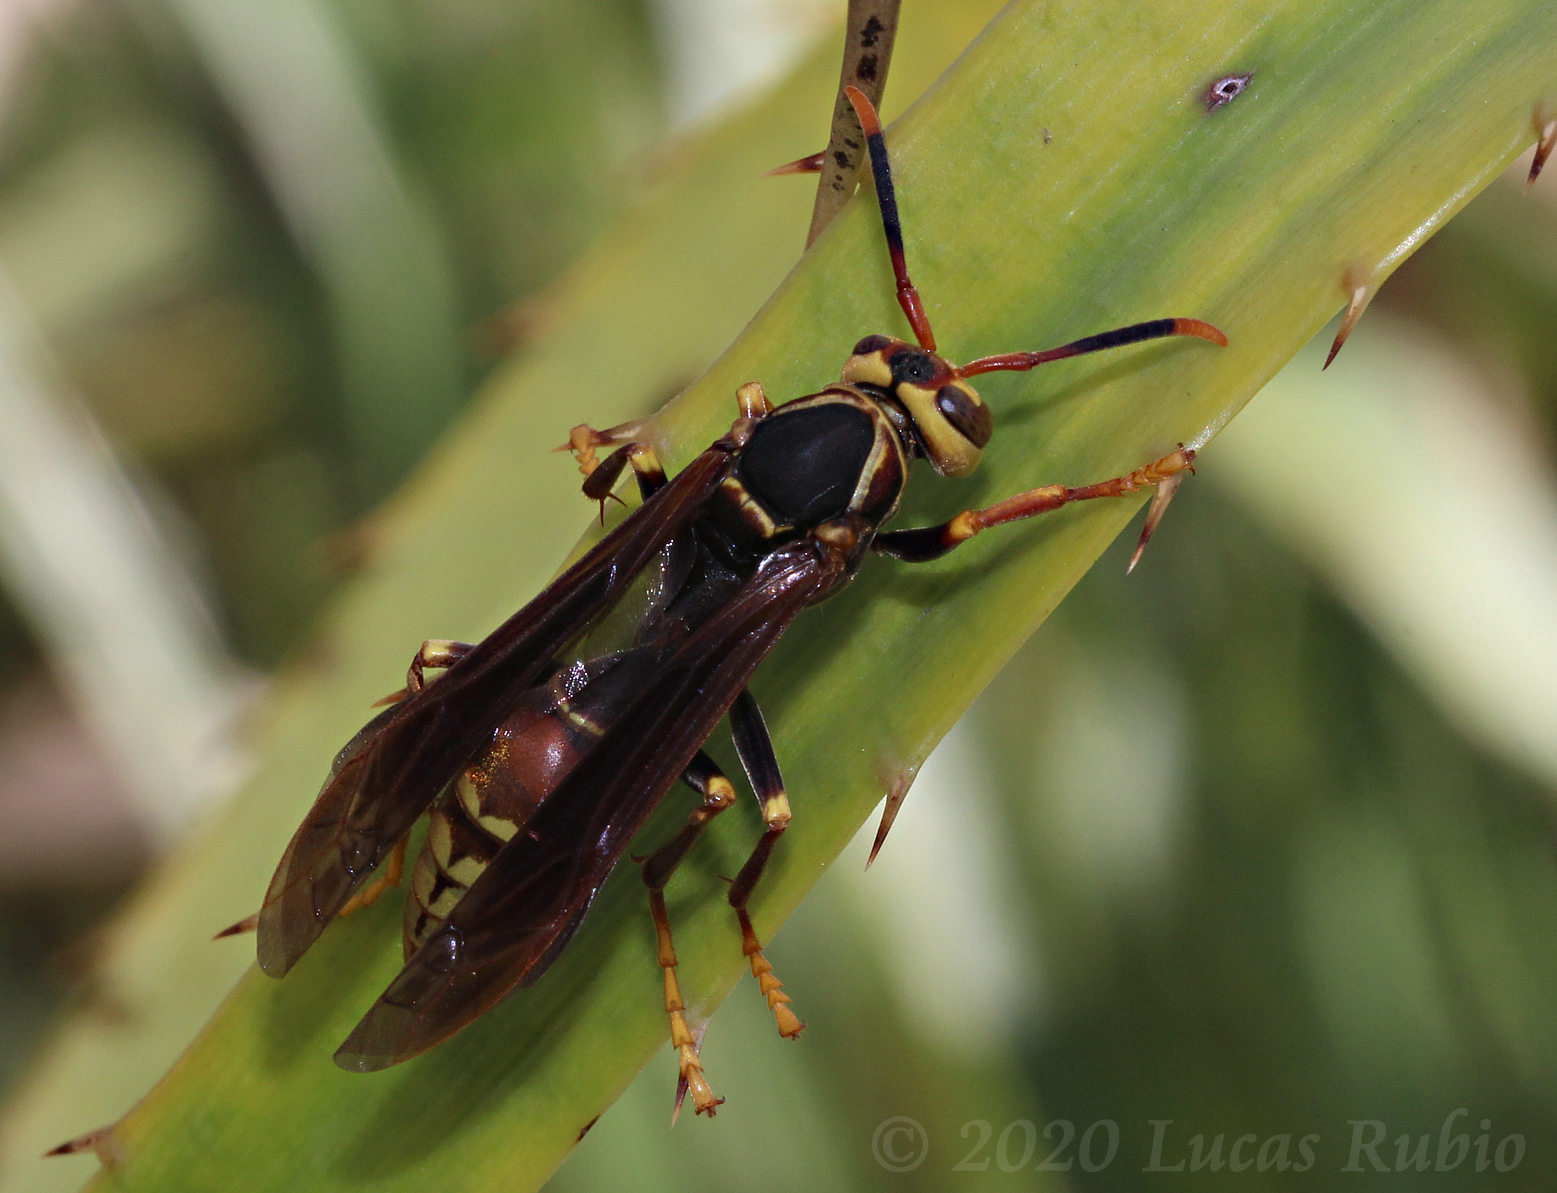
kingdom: Animalia
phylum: Arthropoda
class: Insecta
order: Hymenoptera
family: Eumenidae
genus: Polistes
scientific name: Polistes buyssoni
